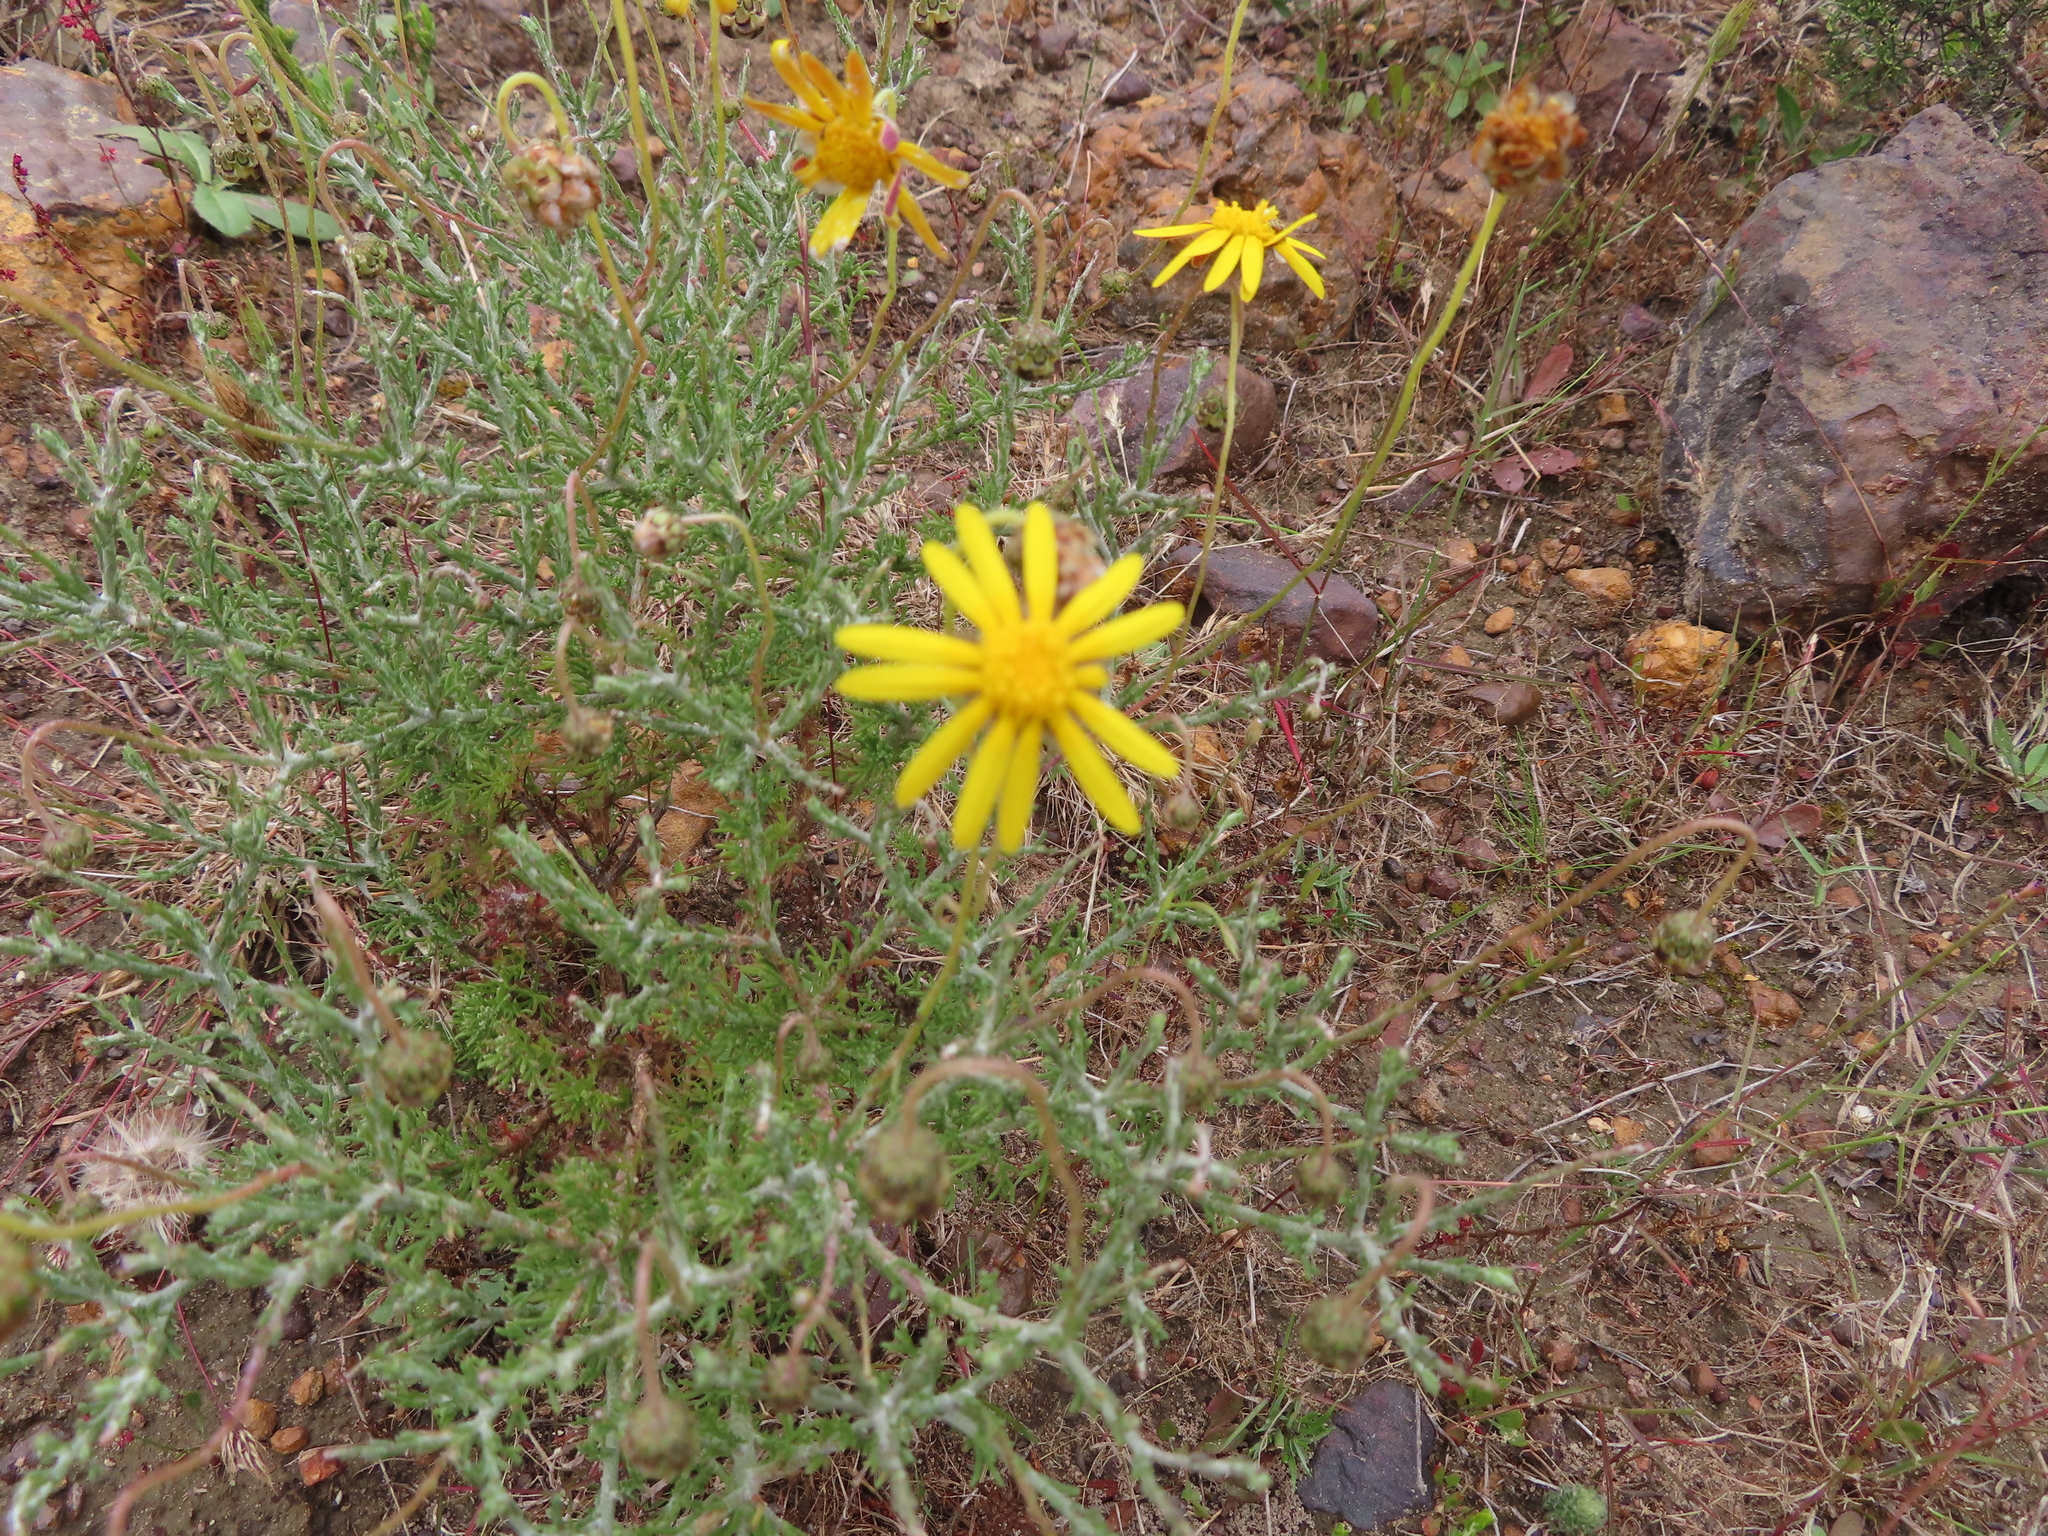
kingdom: Plantae
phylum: Tracheophyta
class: Magnoliopsida
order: Asterales
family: Asteraceae
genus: Ursinia
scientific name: Ursinia discolor
